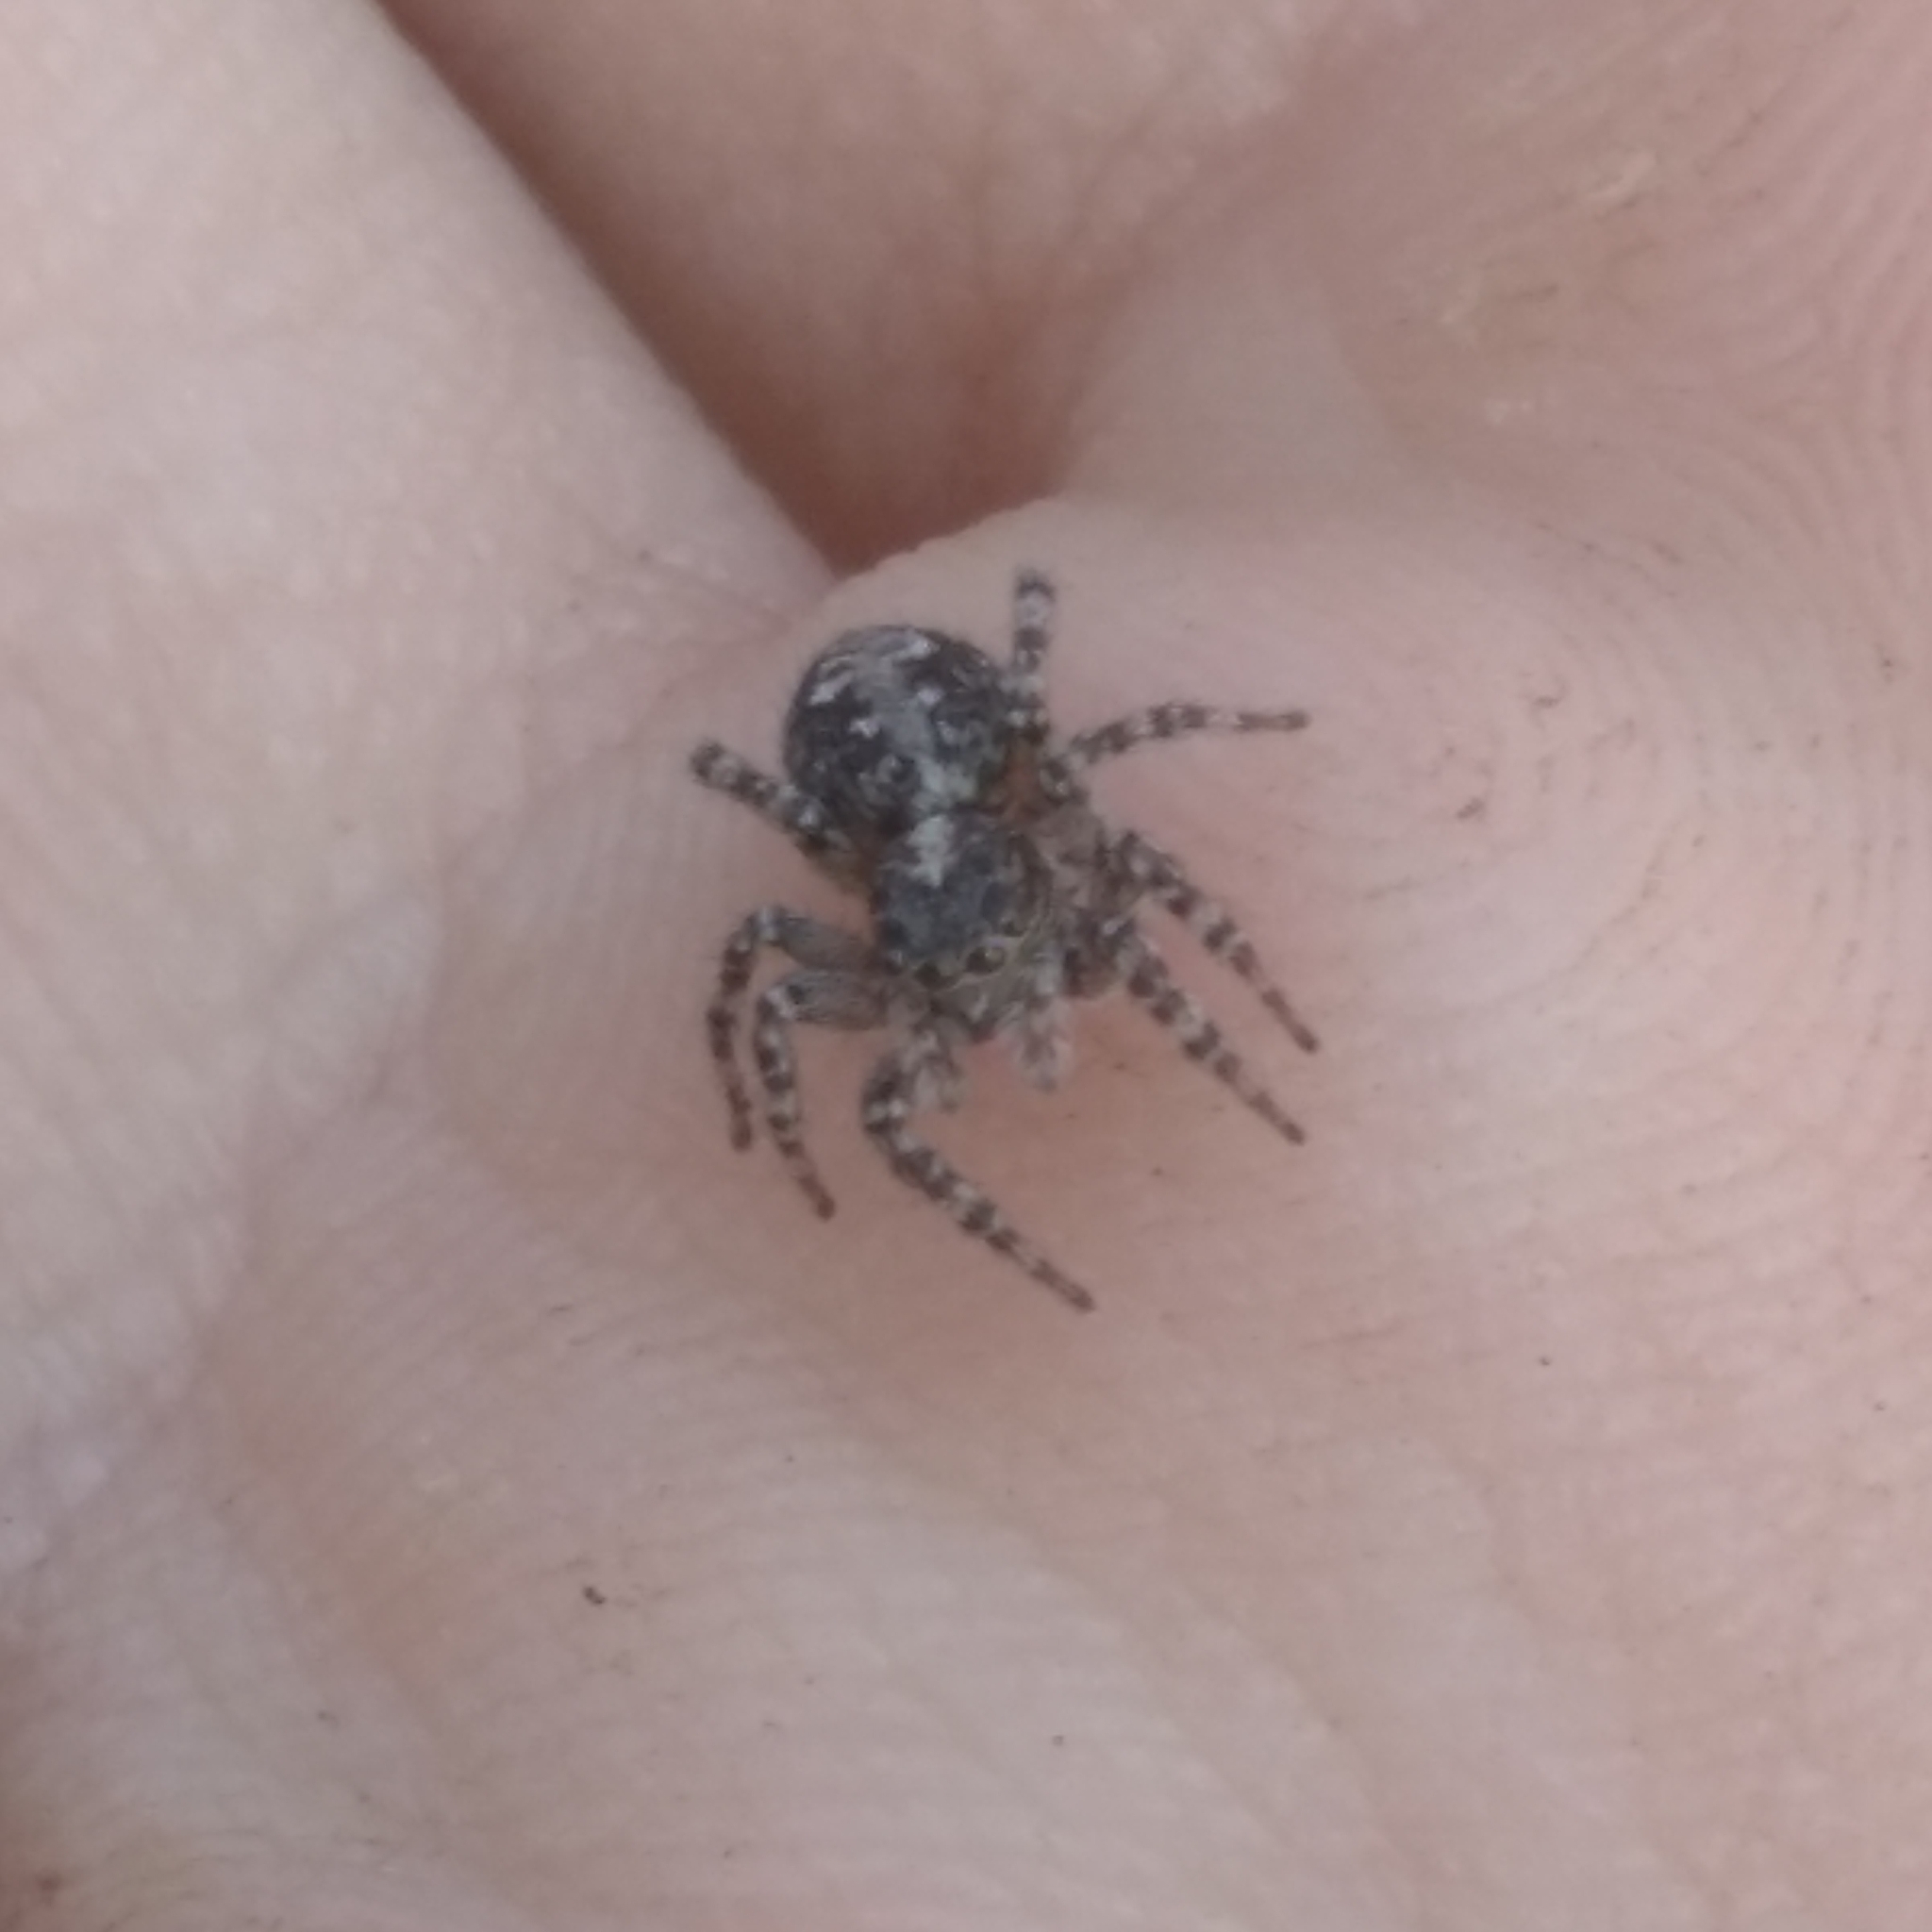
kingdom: Animalia
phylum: Arthropoda
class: Arachnida
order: Araneae
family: Salticidae
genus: Attulus
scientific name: Attulus terebratus
